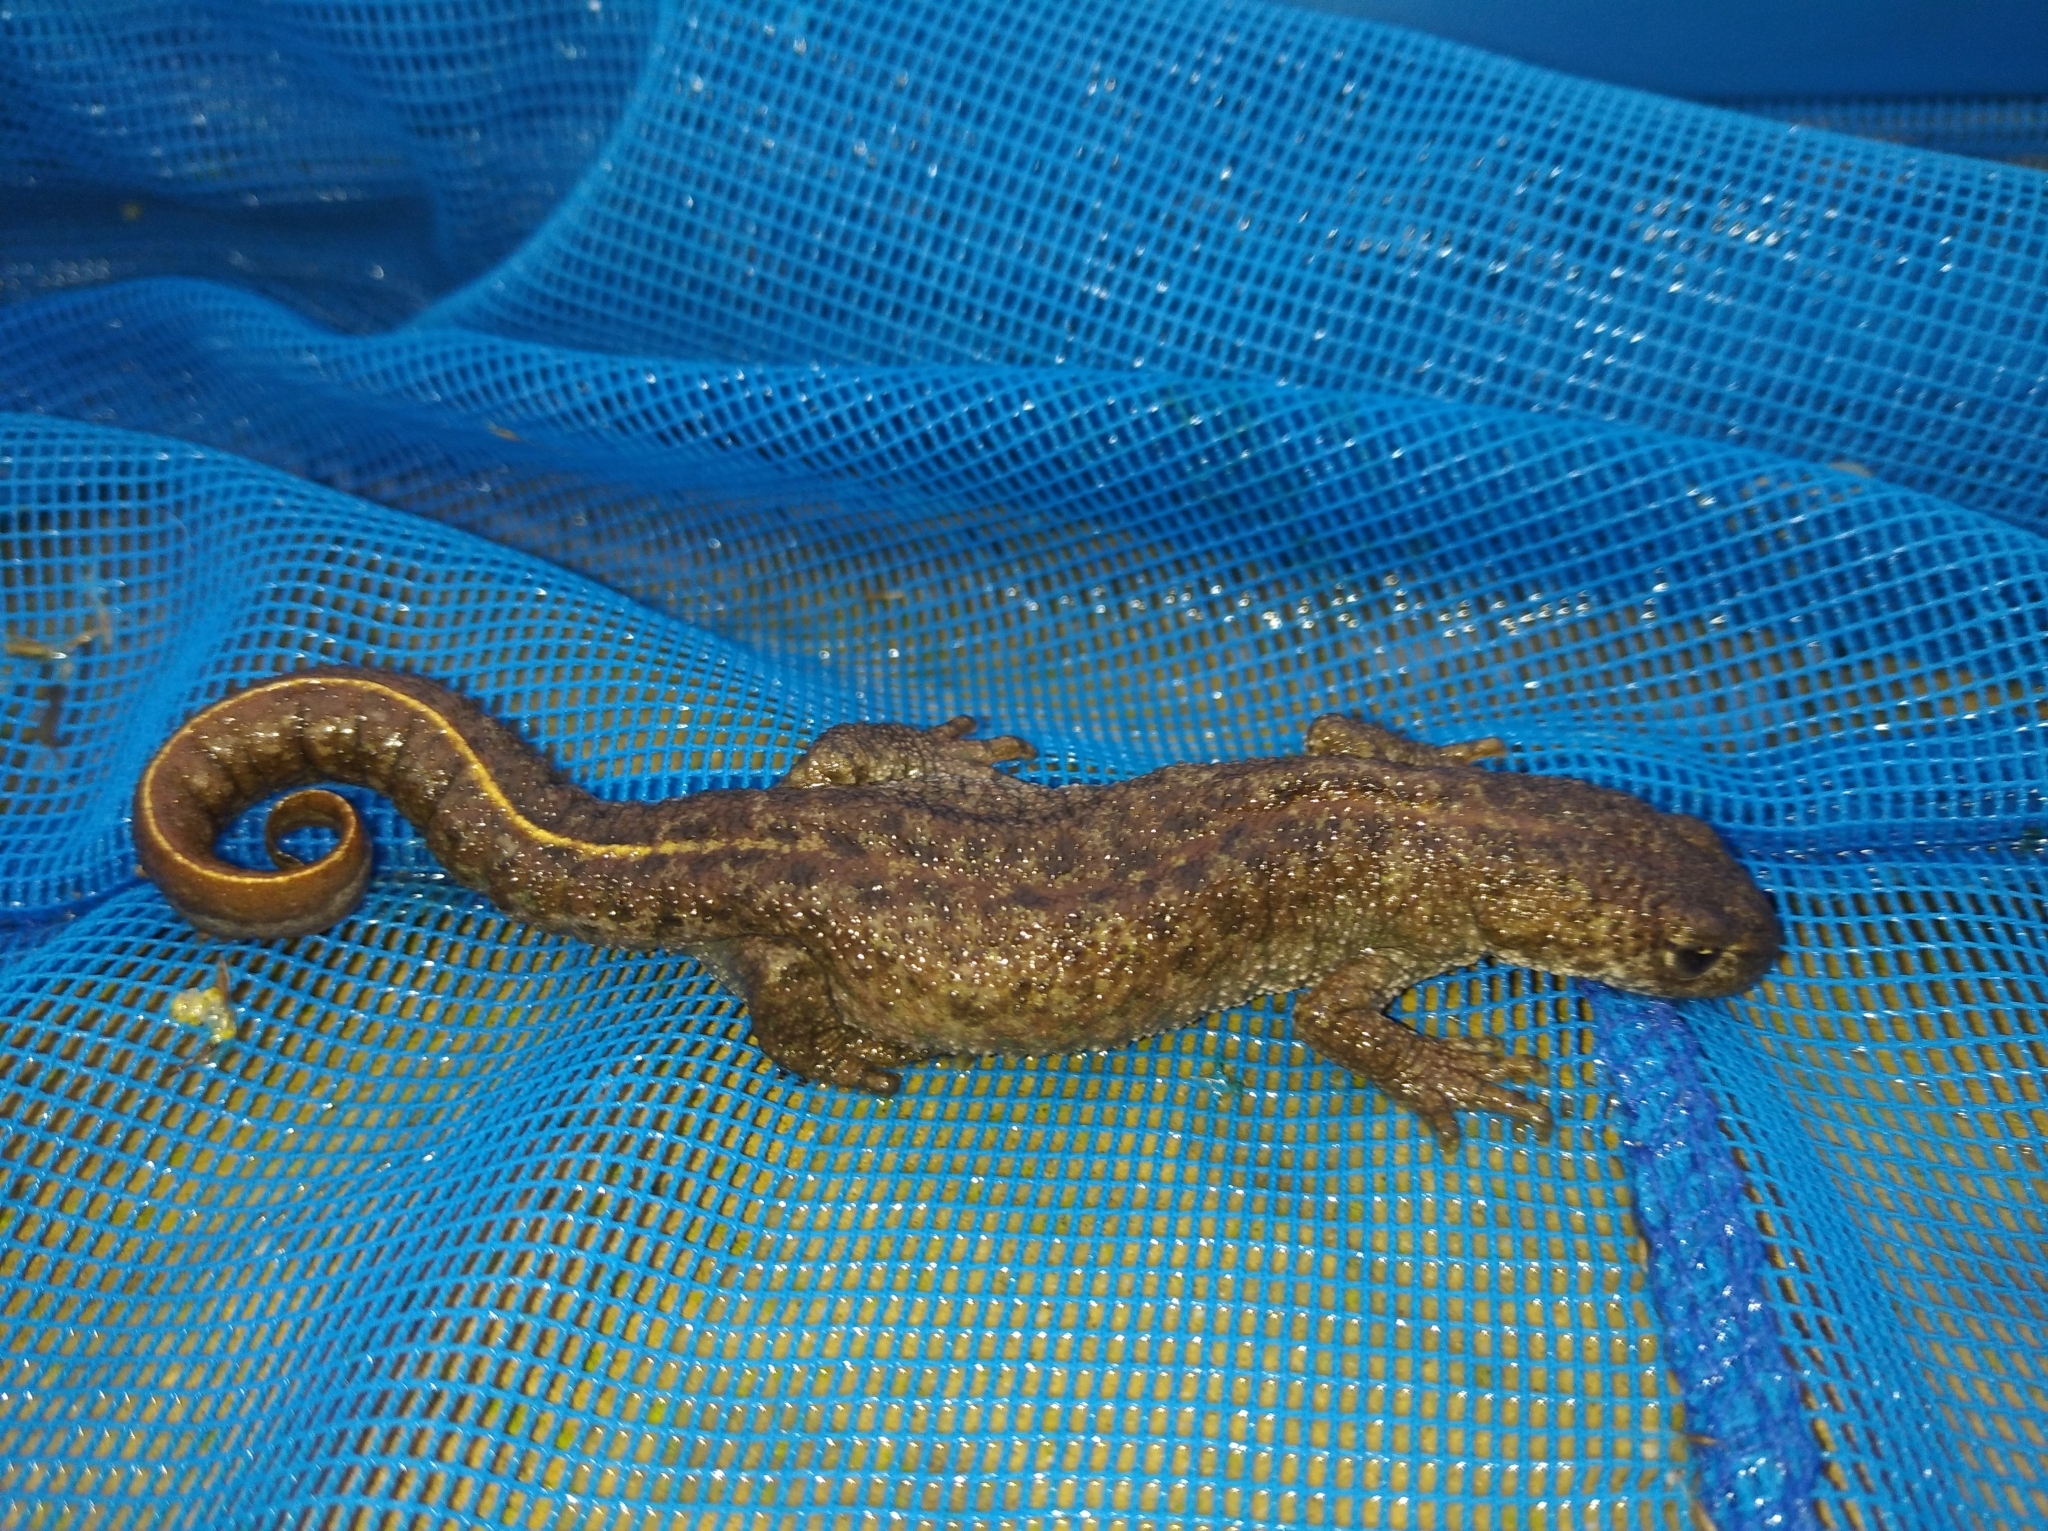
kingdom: Animalia
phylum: Chordata
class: Amphibia
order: Caudata
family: Salamandridae
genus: Triturus
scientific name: Triturus ivanbureschi
